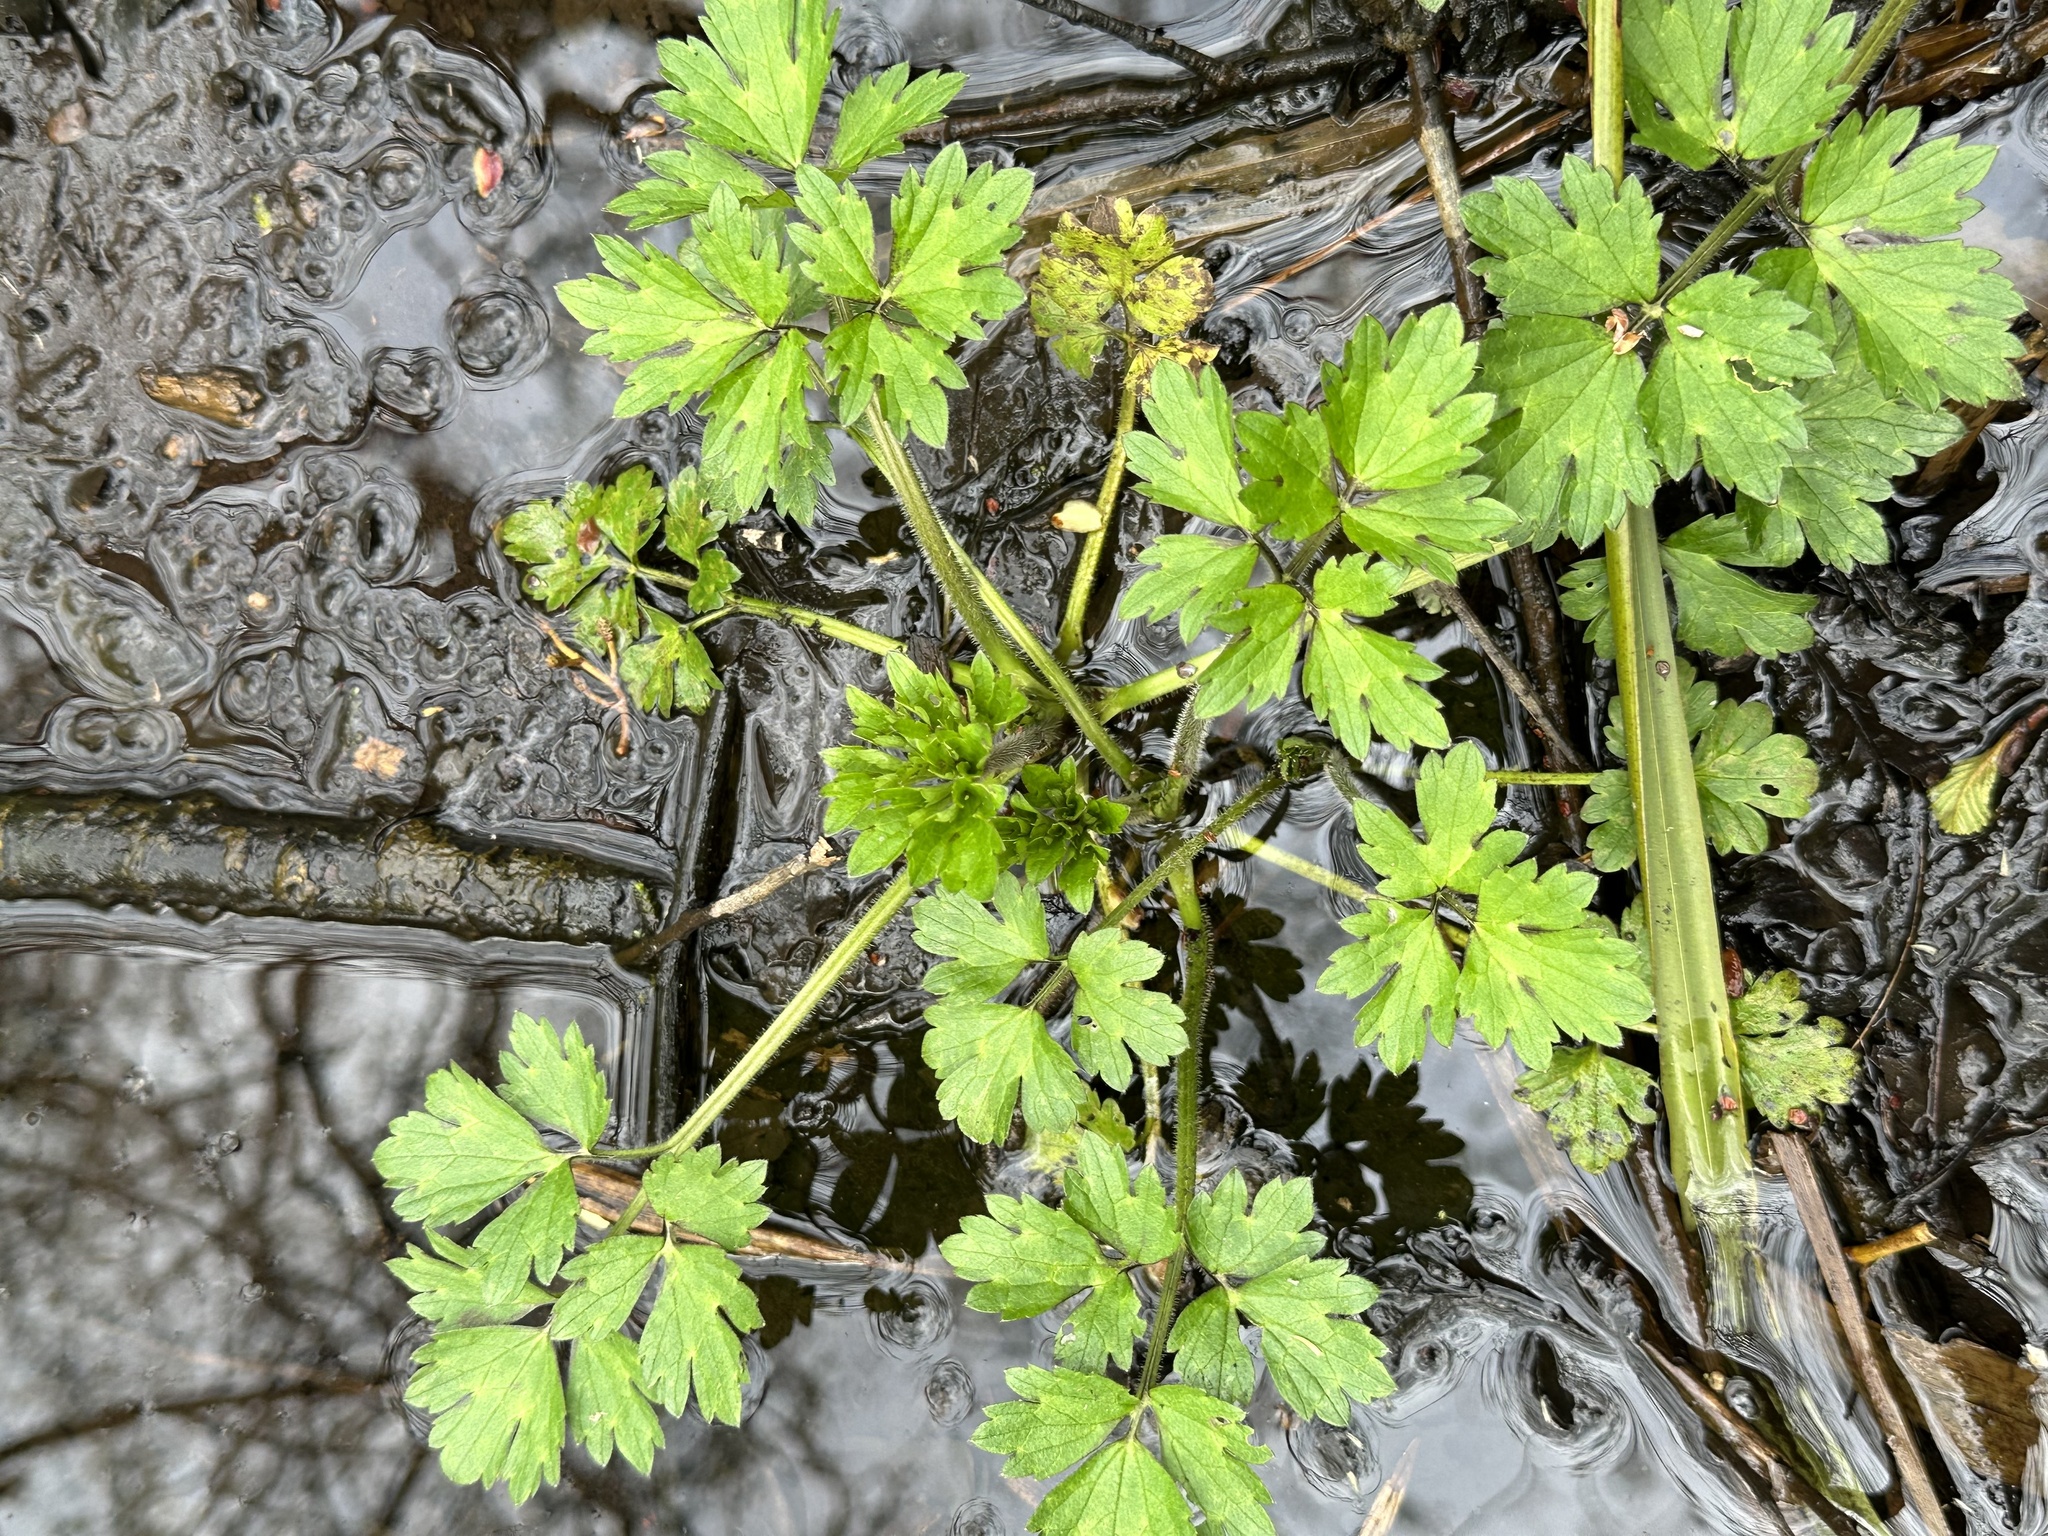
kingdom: Plantae
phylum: Tracheophyta
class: Magnoliopsida
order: Ranunculales
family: Ranunculaceae
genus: Ranunculus
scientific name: Ranunculus repens
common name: Creeping buttercup
